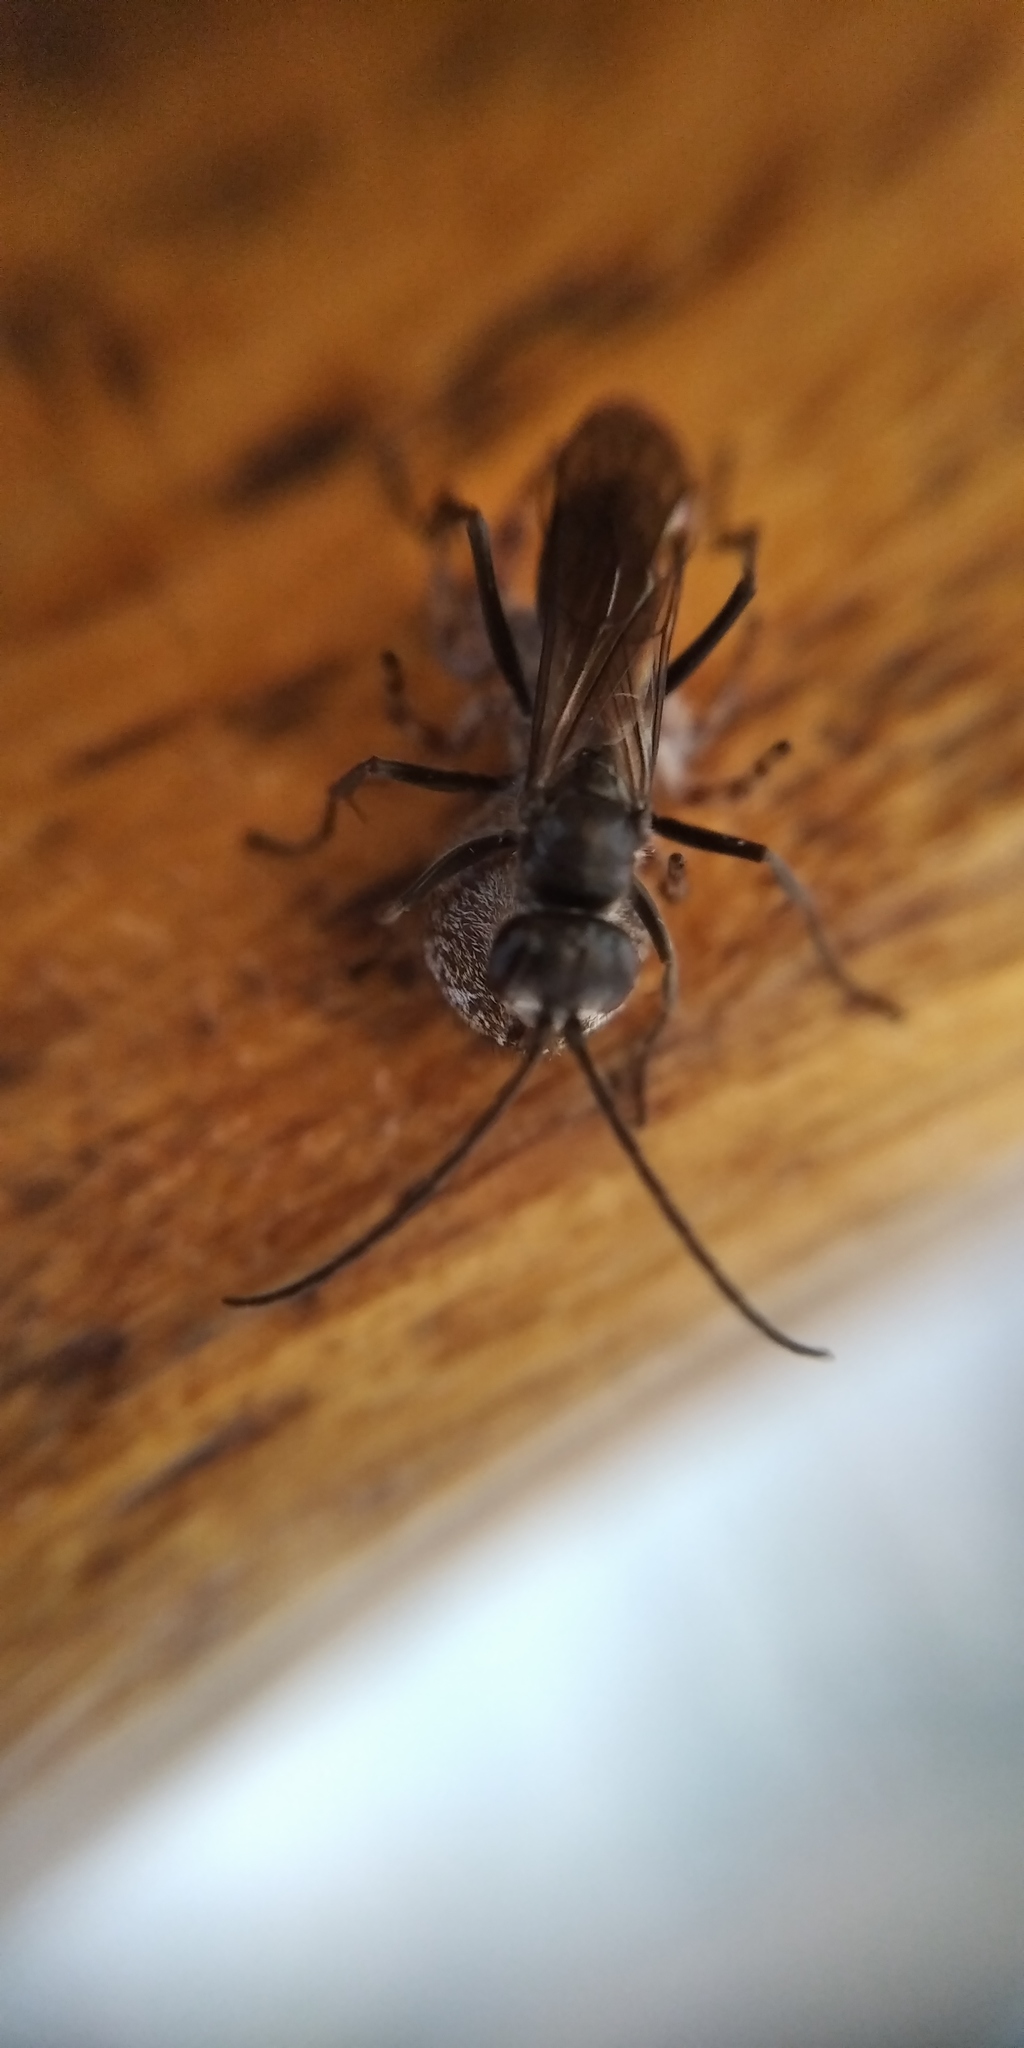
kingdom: Animalia
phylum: Arthropoda
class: Insecta
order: Hymenoptera
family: Pompilidae
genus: Auplopus
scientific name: Auplopus carbonarius
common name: Spider wasp
